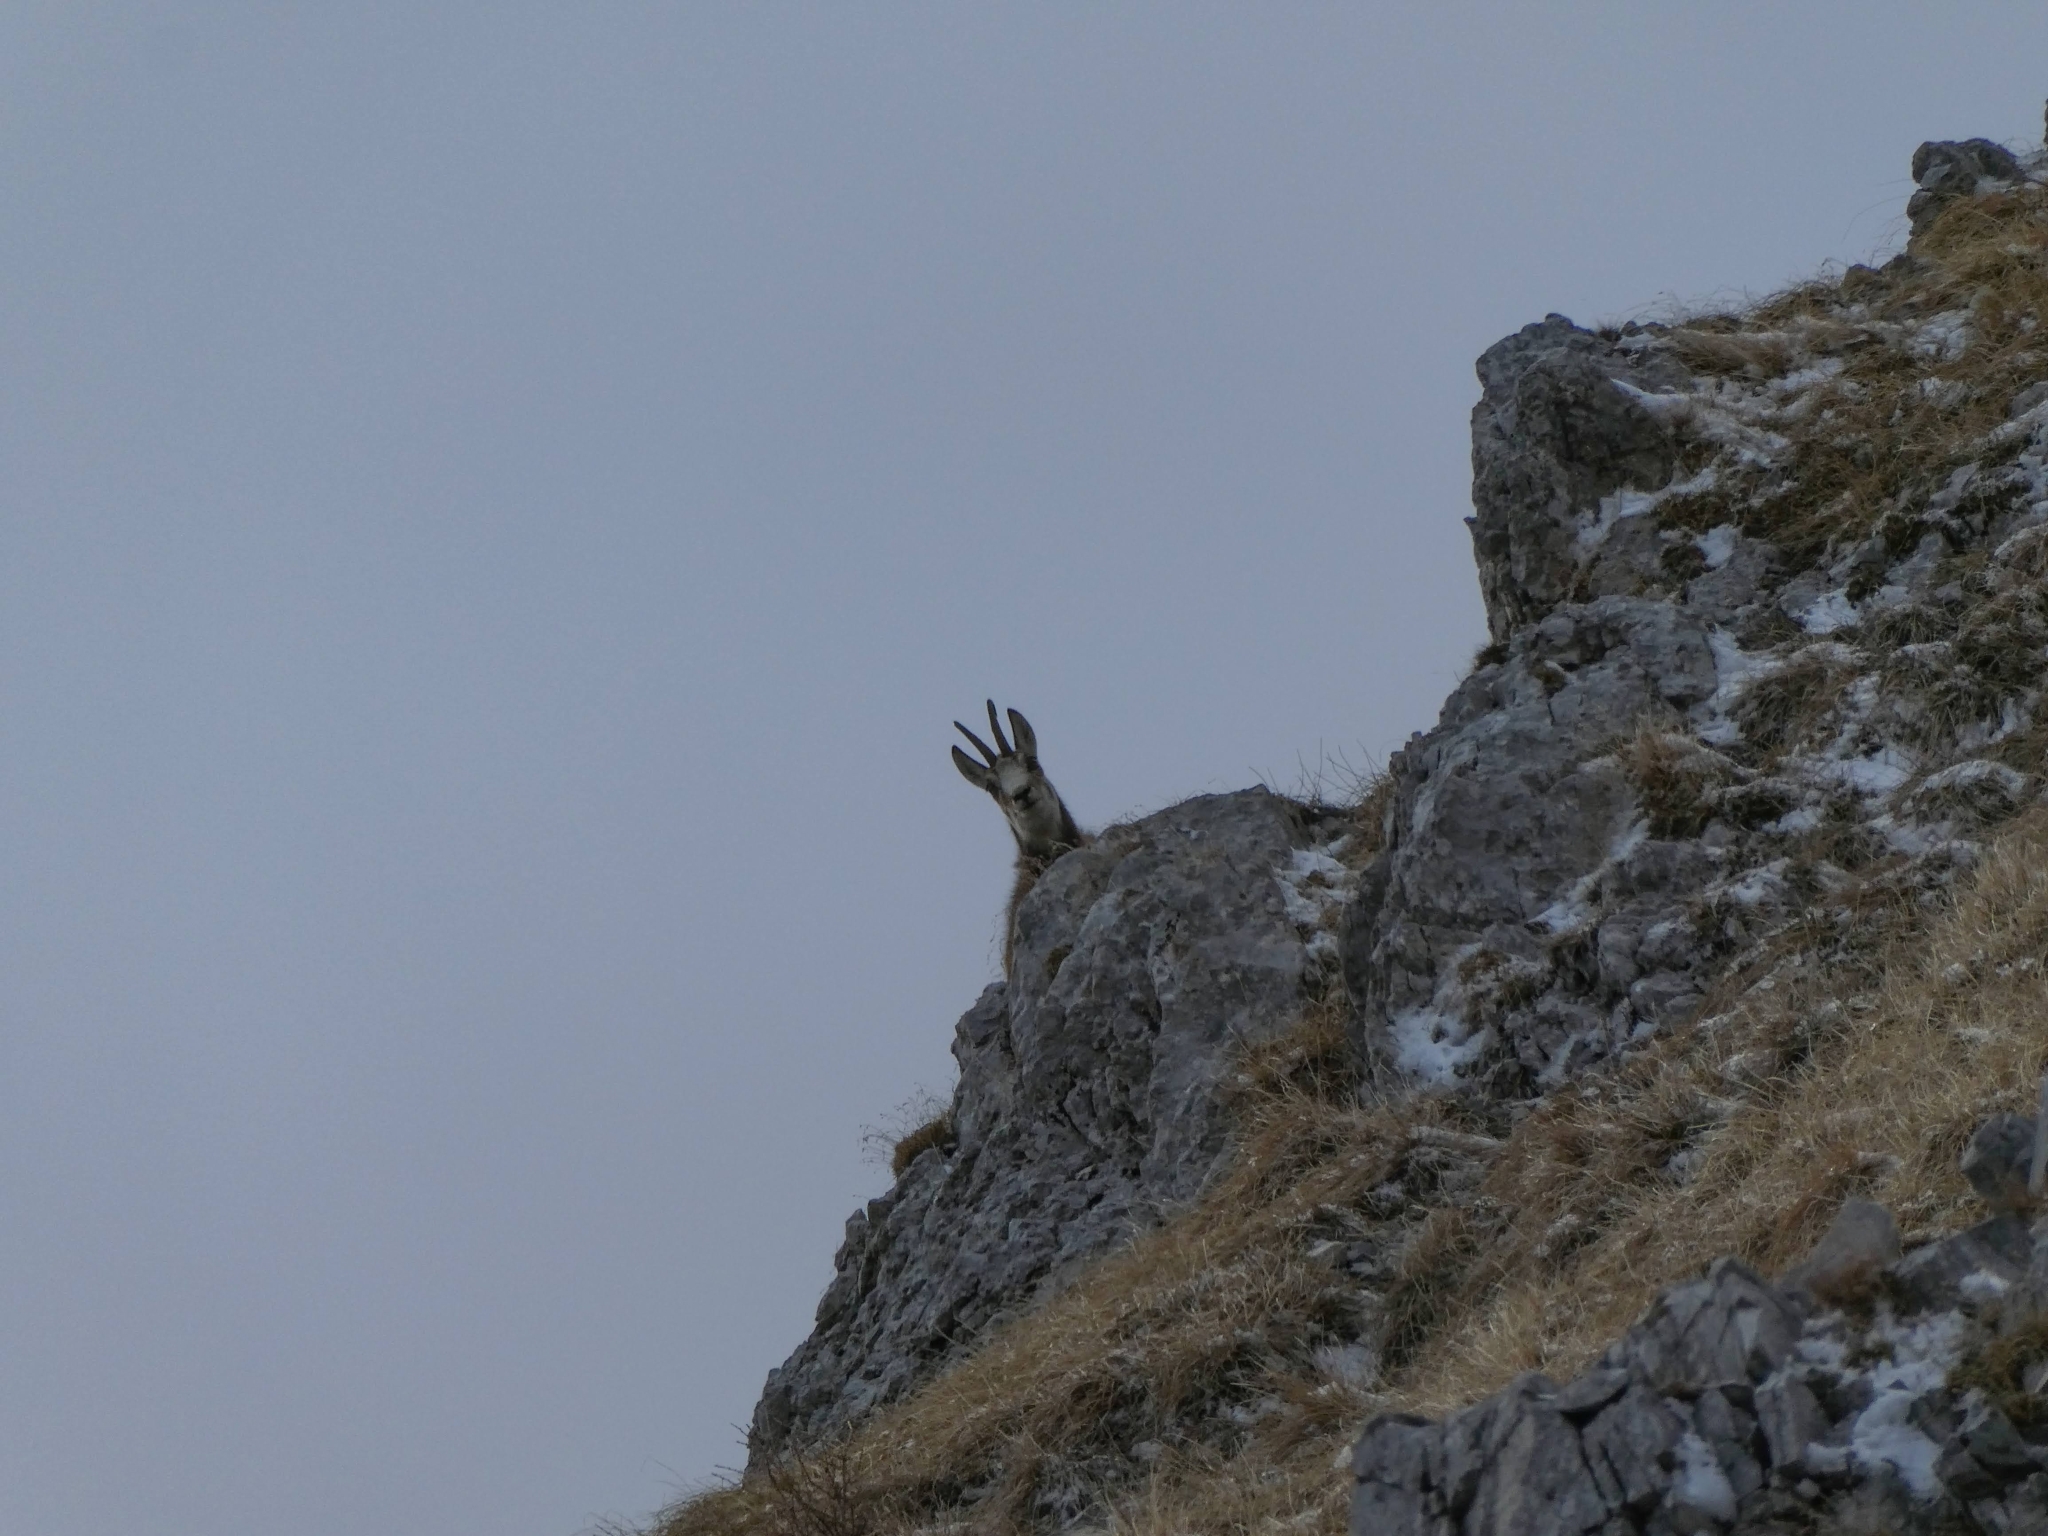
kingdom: Animalia
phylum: Chordata
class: Mammalia
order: Artiodactyla
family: Bovidae
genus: Rupicapra
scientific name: Rupicapra rupicapra
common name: Chamois
